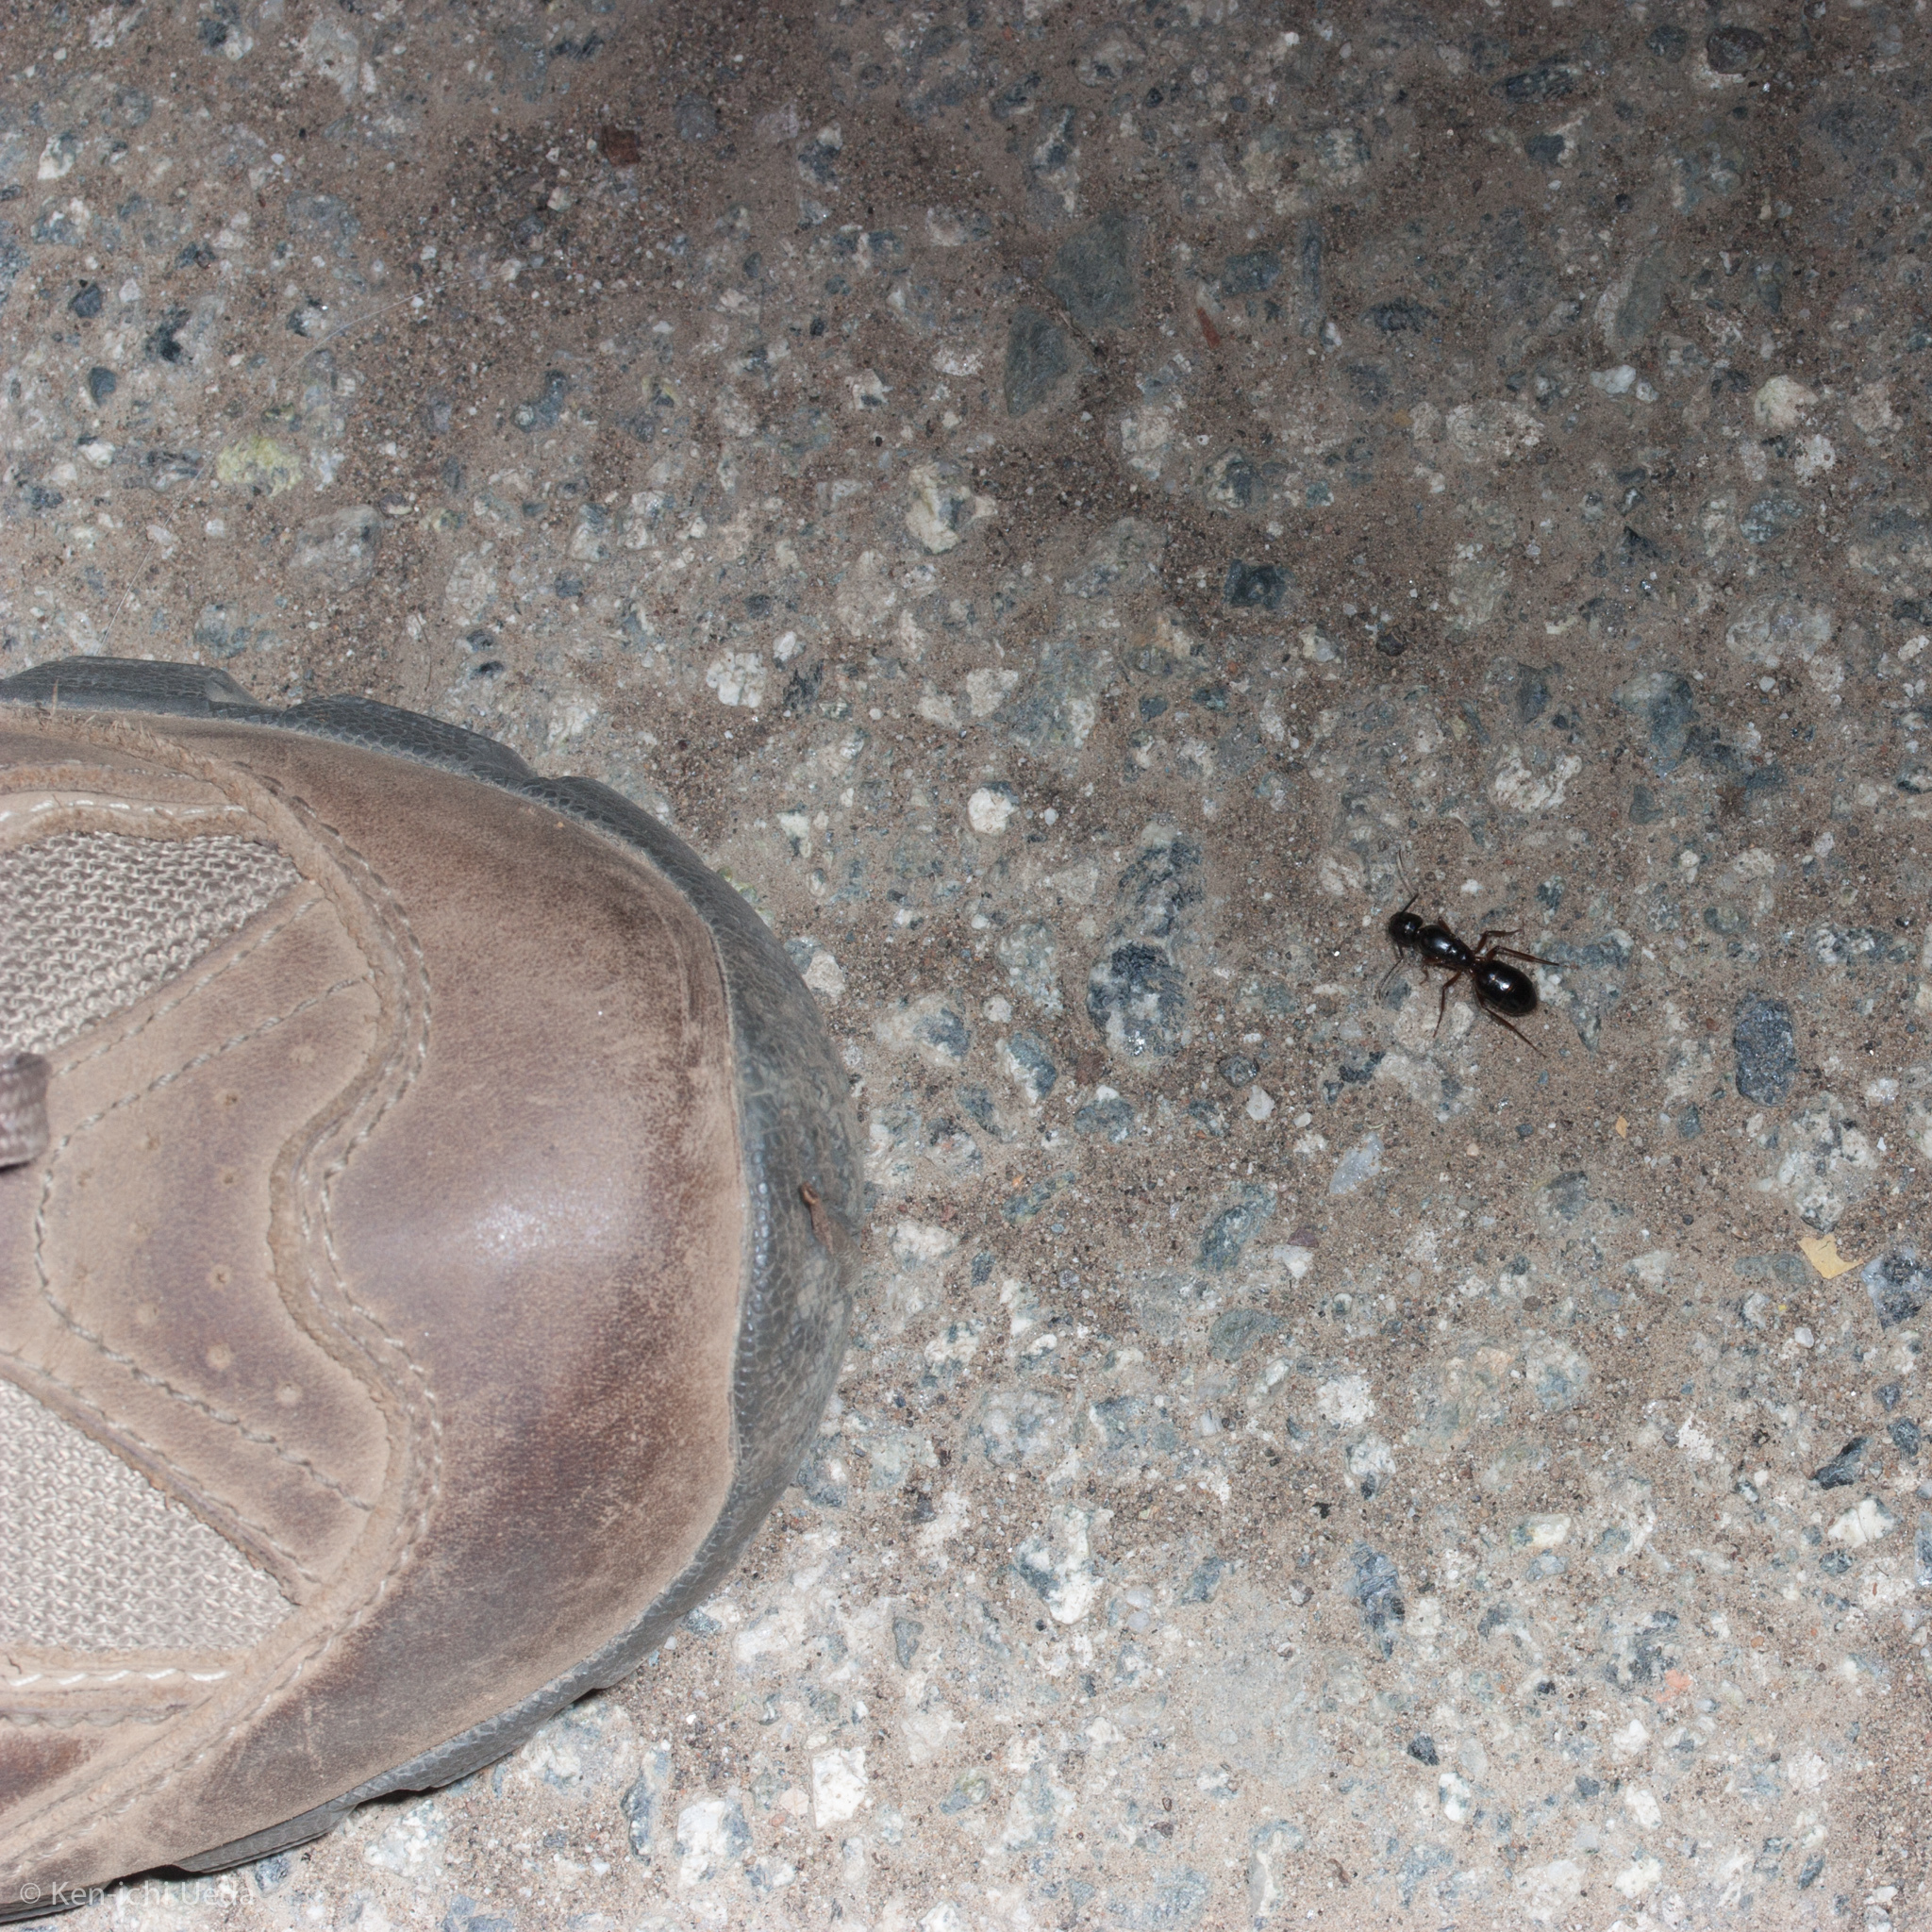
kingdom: Animalia
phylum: Arthropoda
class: Insecta
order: Hymenoptera
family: Formicidae
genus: Camponotus
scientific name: Camponotus dumetorum
